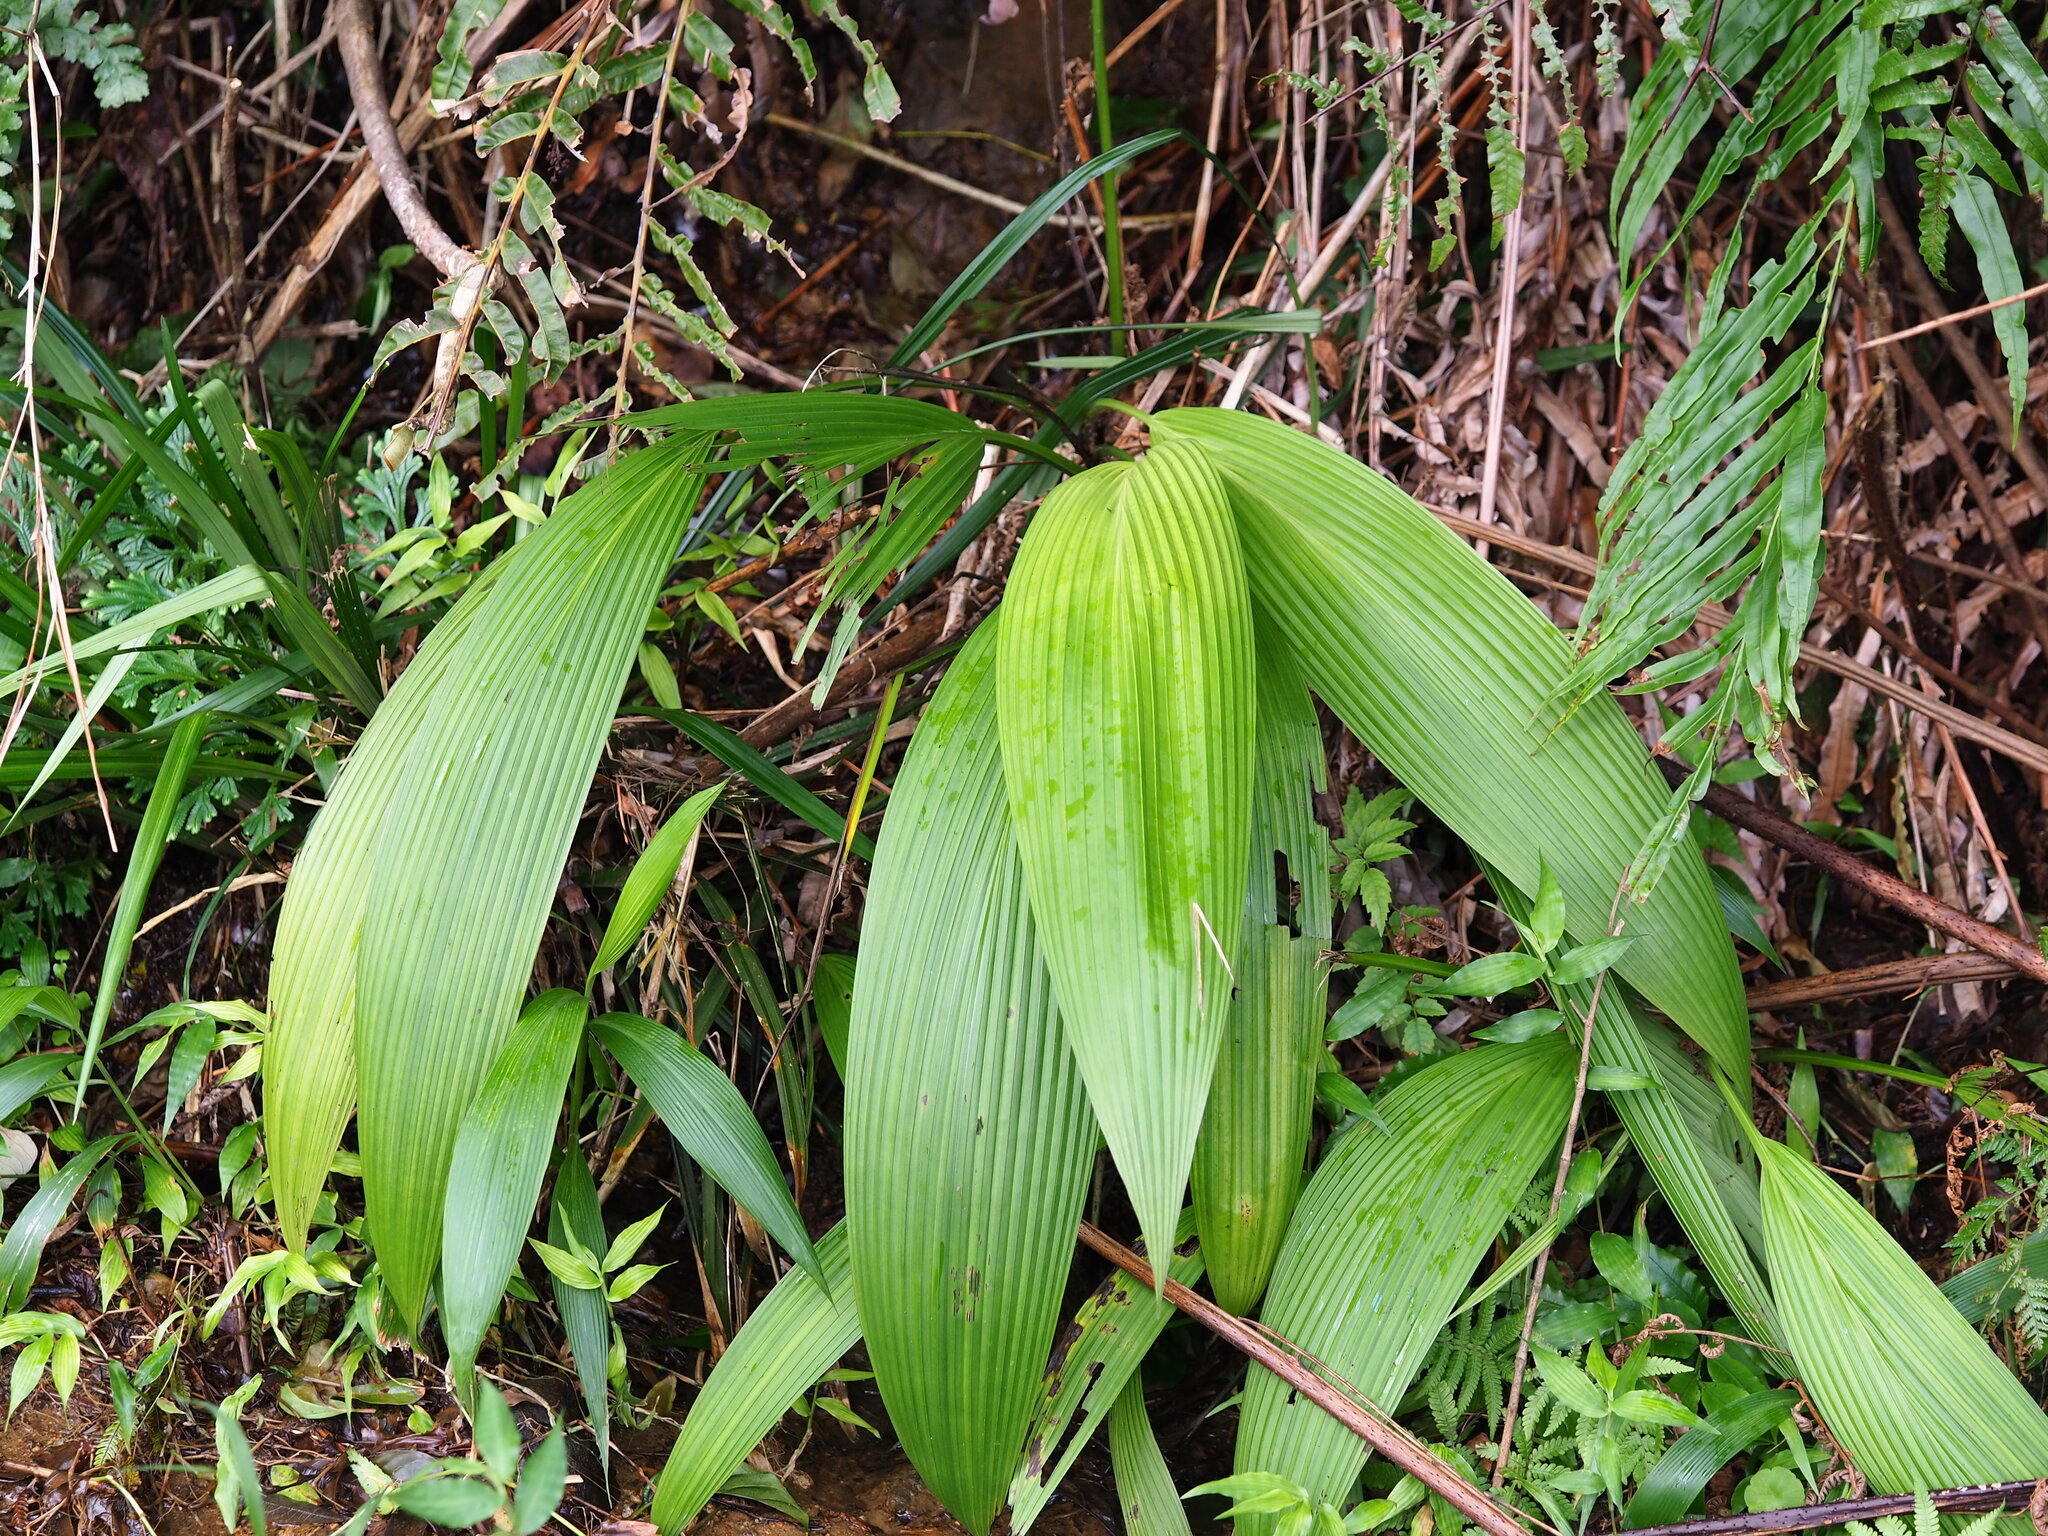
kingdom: Plantae
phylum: Tracheophyta
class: Liliopsida
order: Asparagales
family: Hypoxidaceae
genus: Curculigo
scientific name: Curculigo capitulata
